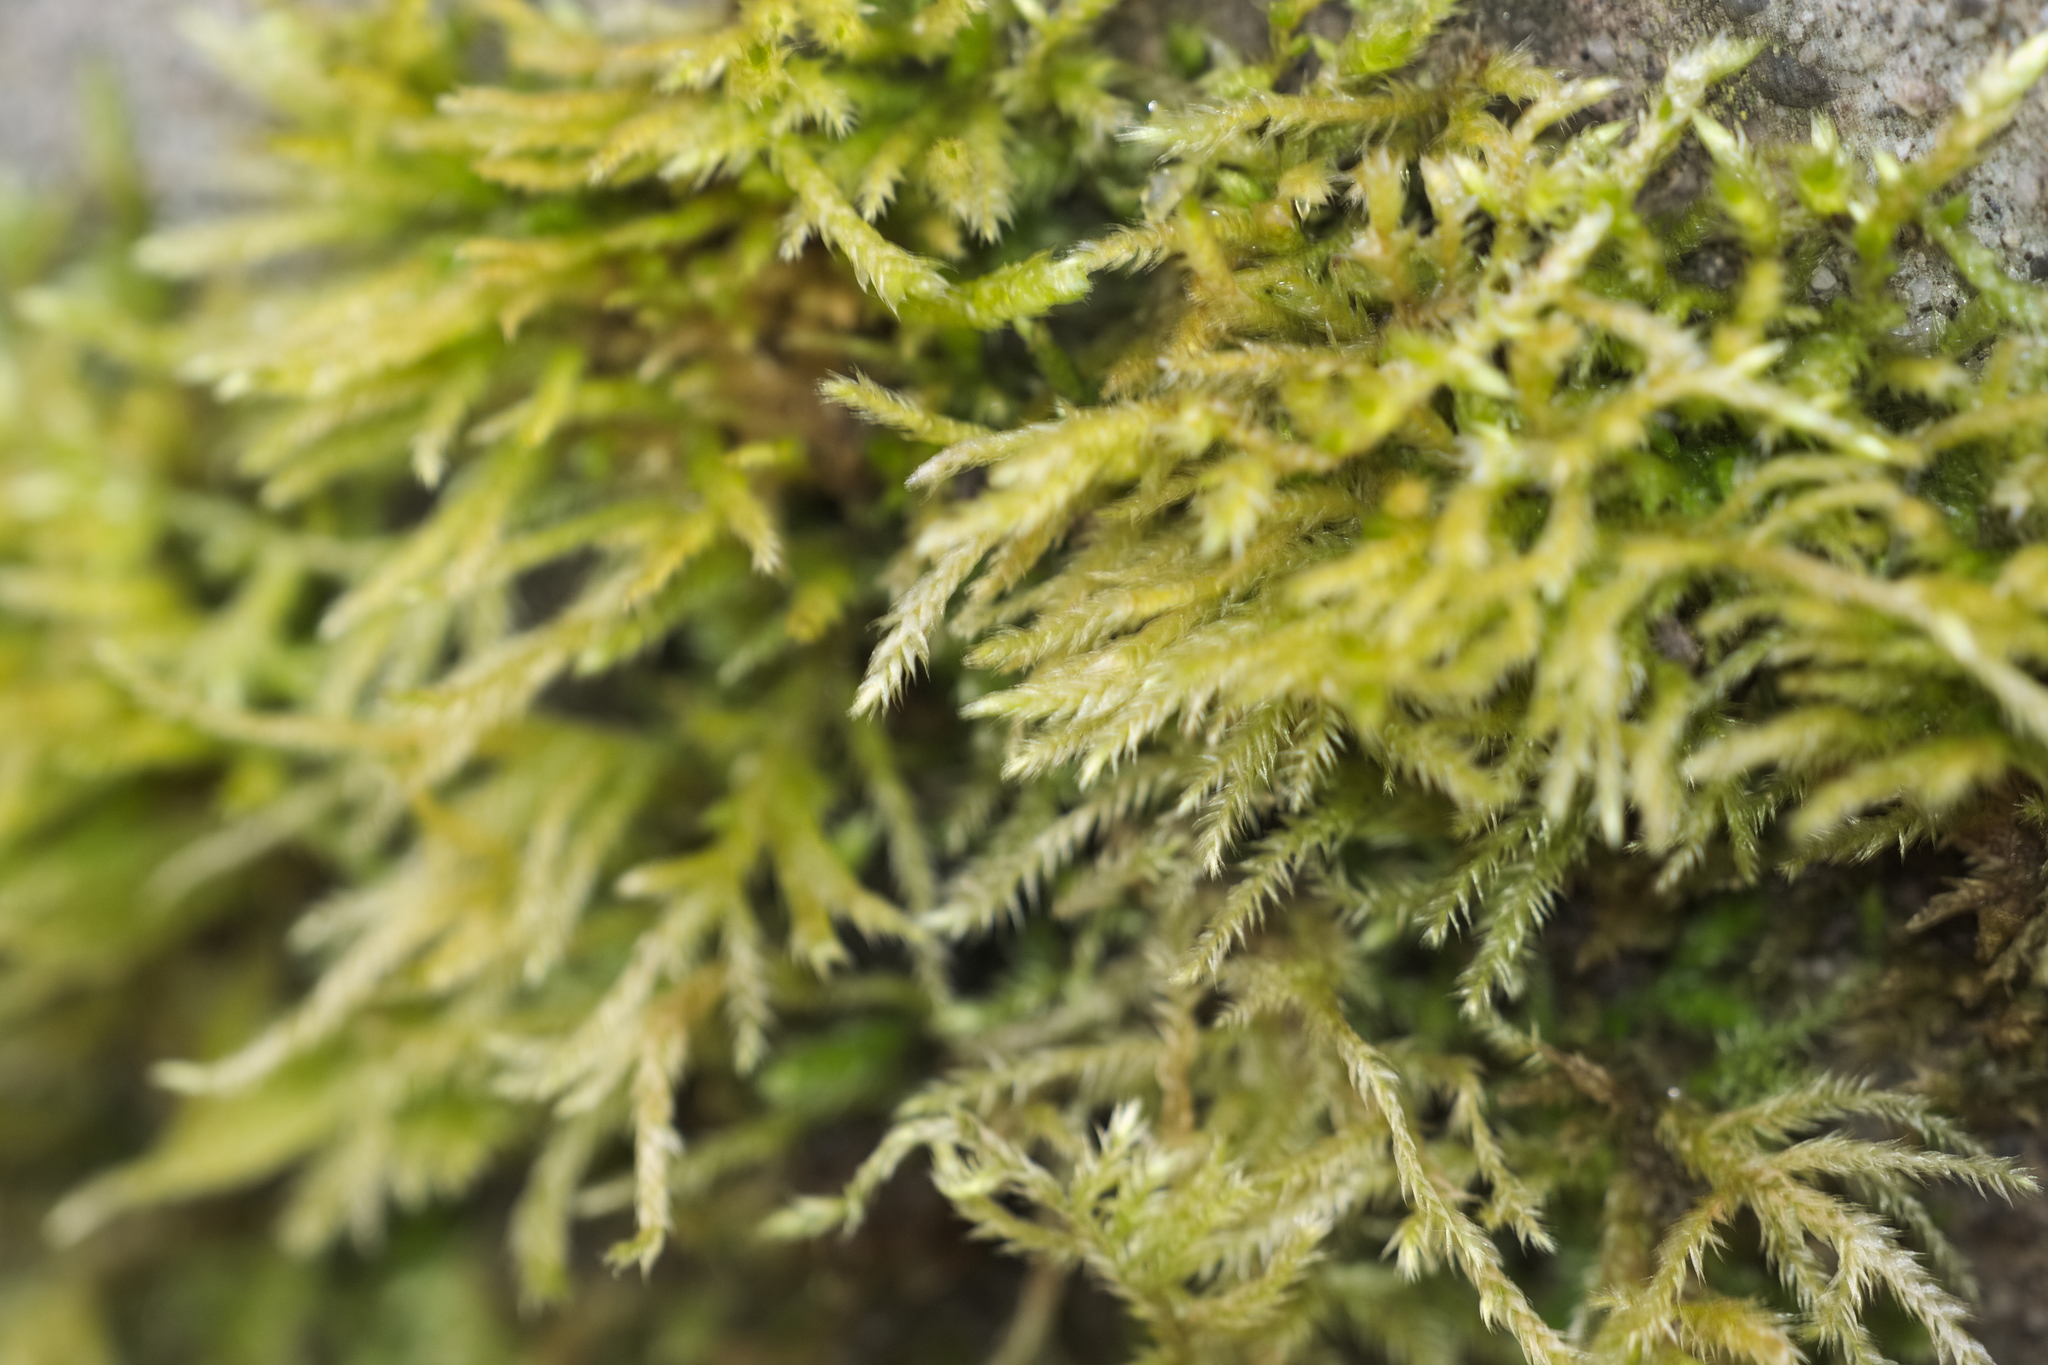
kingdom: Plantae
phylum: Bryophyta
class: Bryopsida
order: Hypnales
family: Brachytheciaceae
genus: Brachythecium
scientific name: Brachythecium rutabulum
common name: Rough-stalked feather-moss
